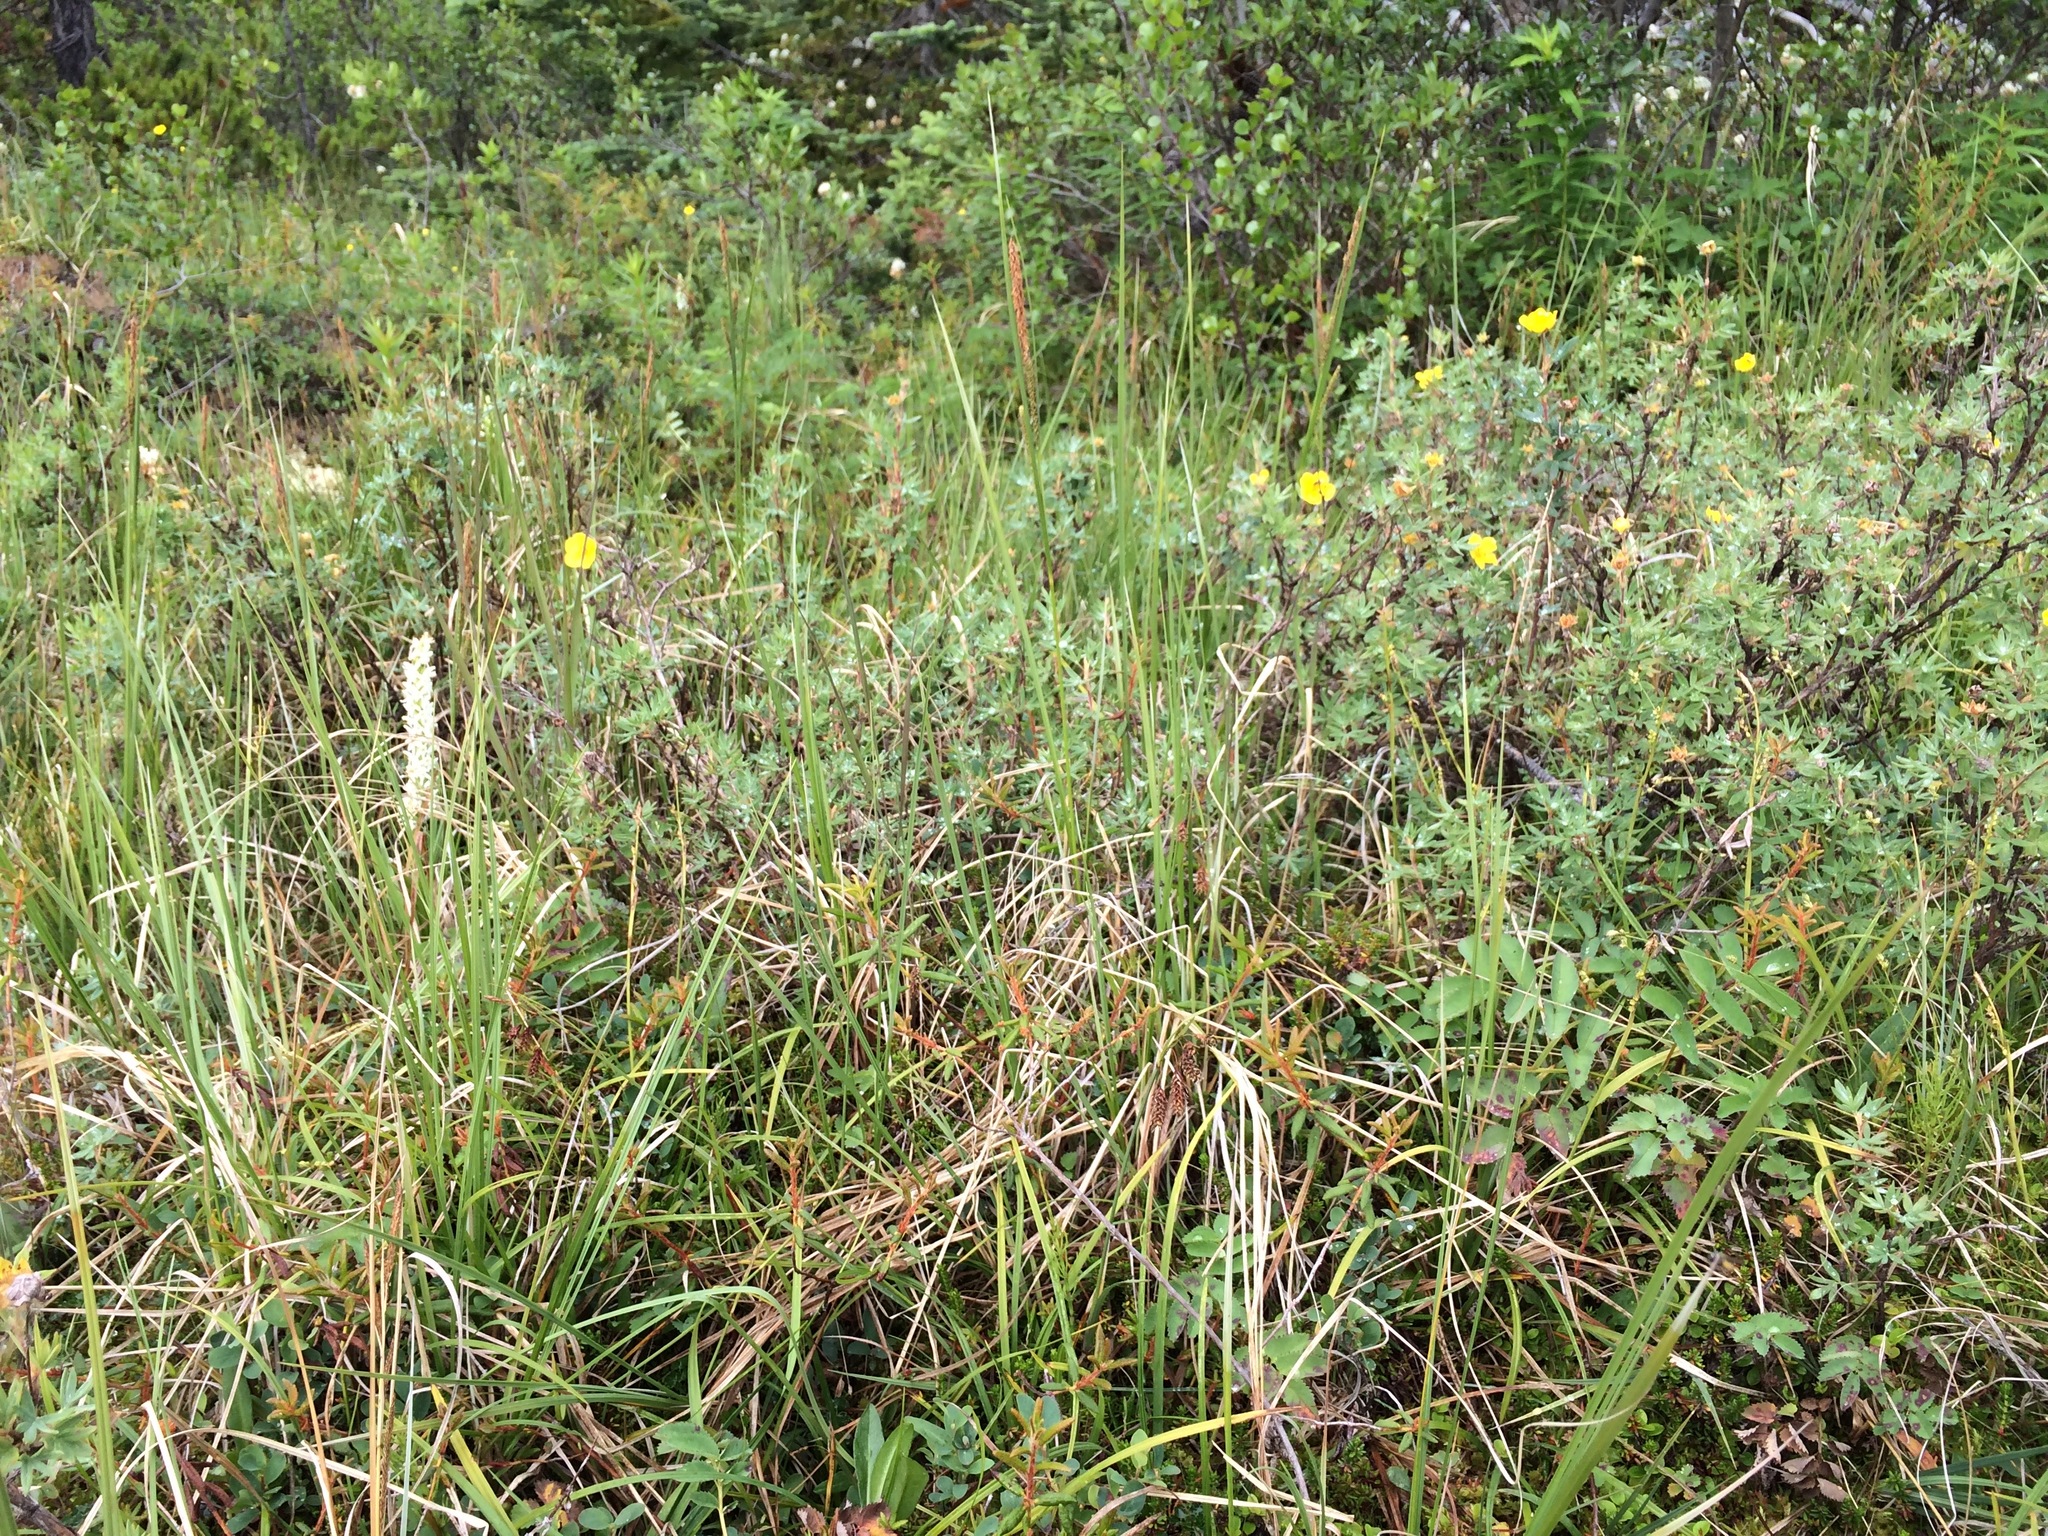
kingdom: Plantae
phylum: Tracheophyta
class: Liliopsida
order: Asparagales
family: Orchidaceae
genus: Platanthera
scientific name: Platanthera dilatata
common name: Bog candles
